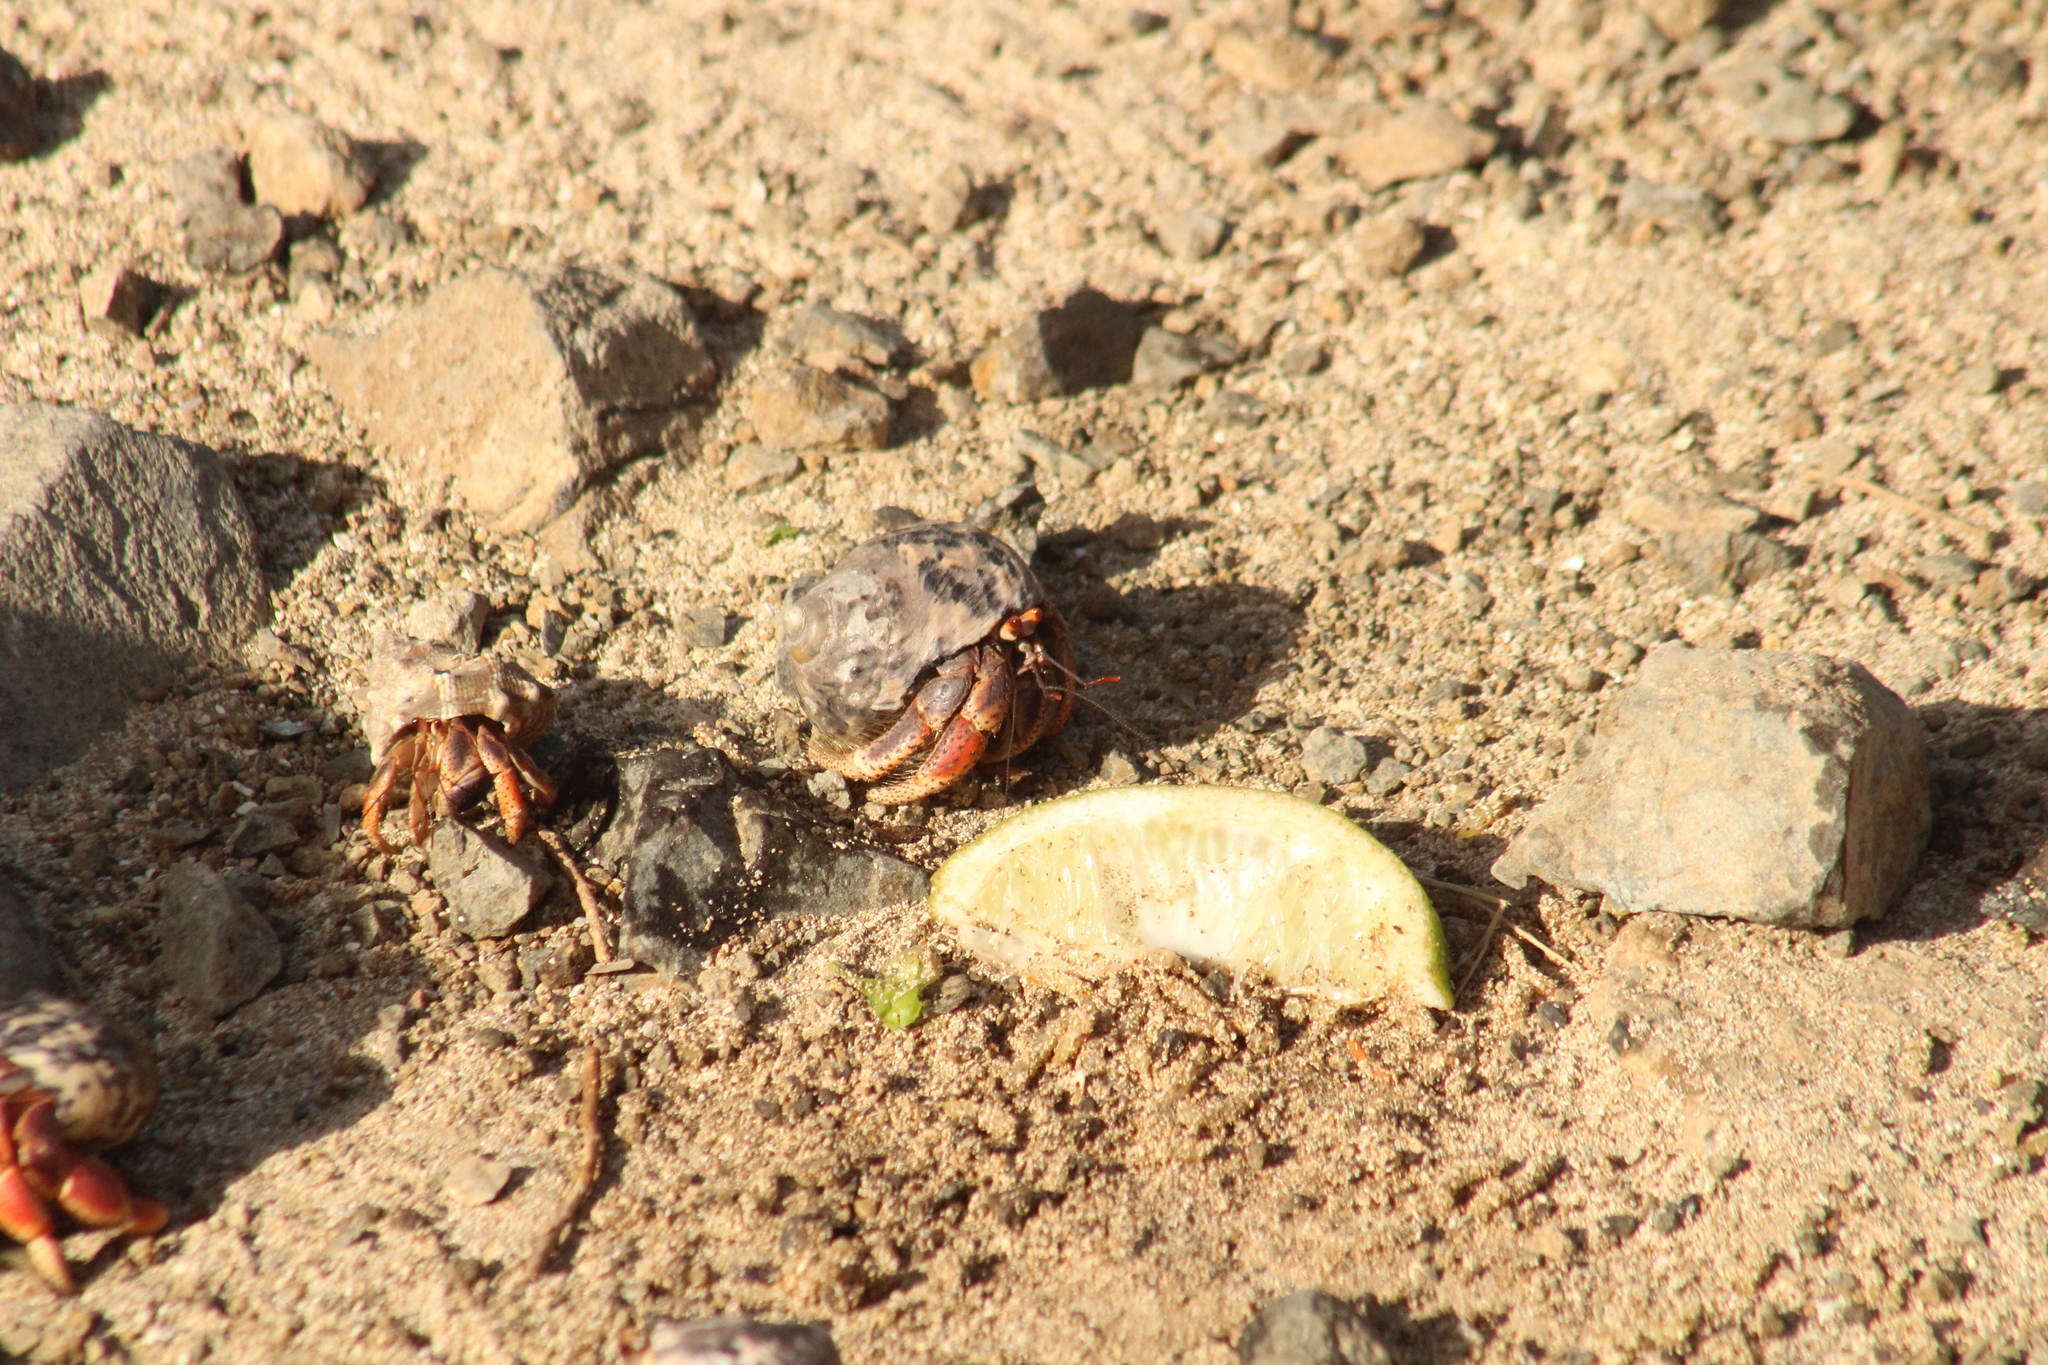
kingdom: Animalia
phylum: Arthropoda
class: Malacostraca
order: Decapoda
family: Coenobitidae
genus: Coenobita
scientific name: Coenobita clypeatus
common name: Caribbean hermit crab
